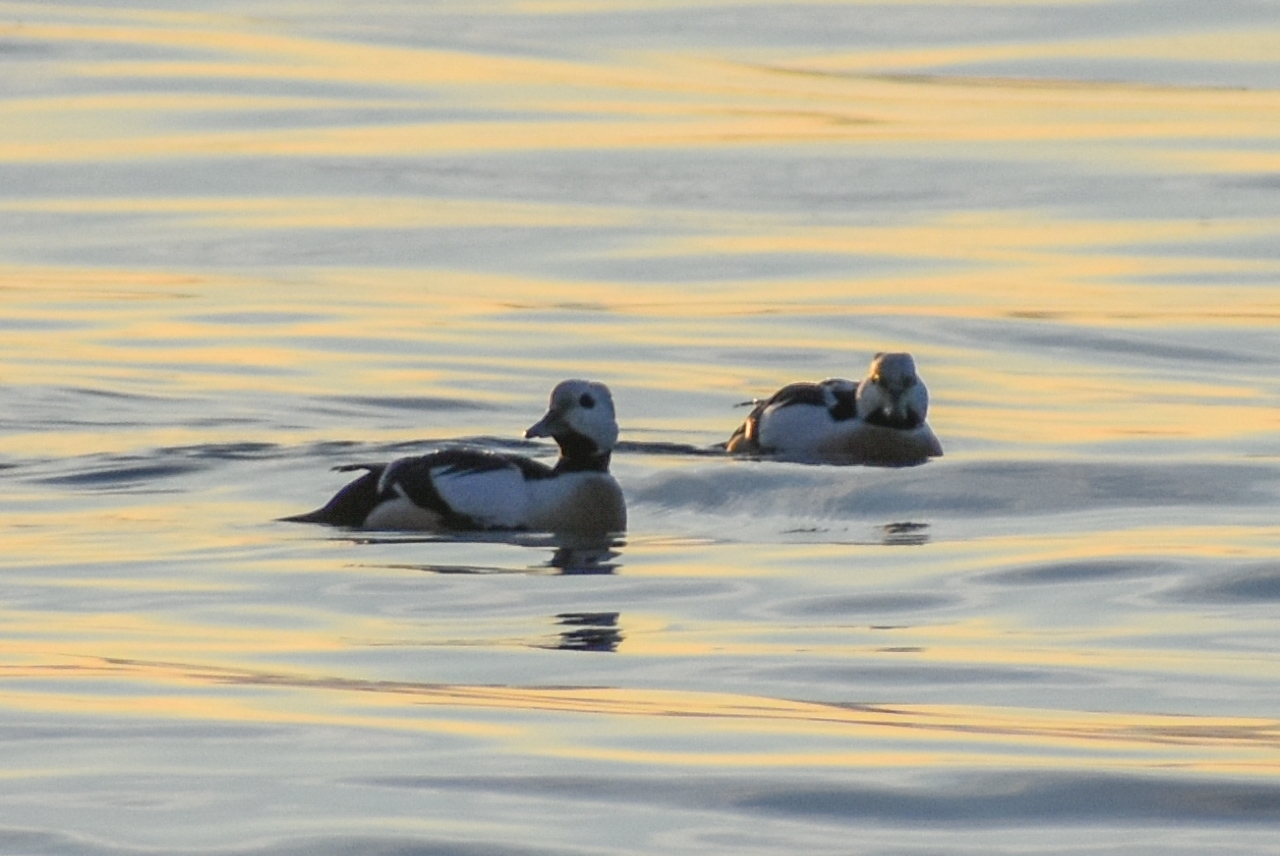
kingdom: Animalia
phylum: Chordata
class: Aves
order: Anseriformes
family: Anatidae
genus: Polysticta
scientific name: Polysticta stelleri
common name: Steller's eider
